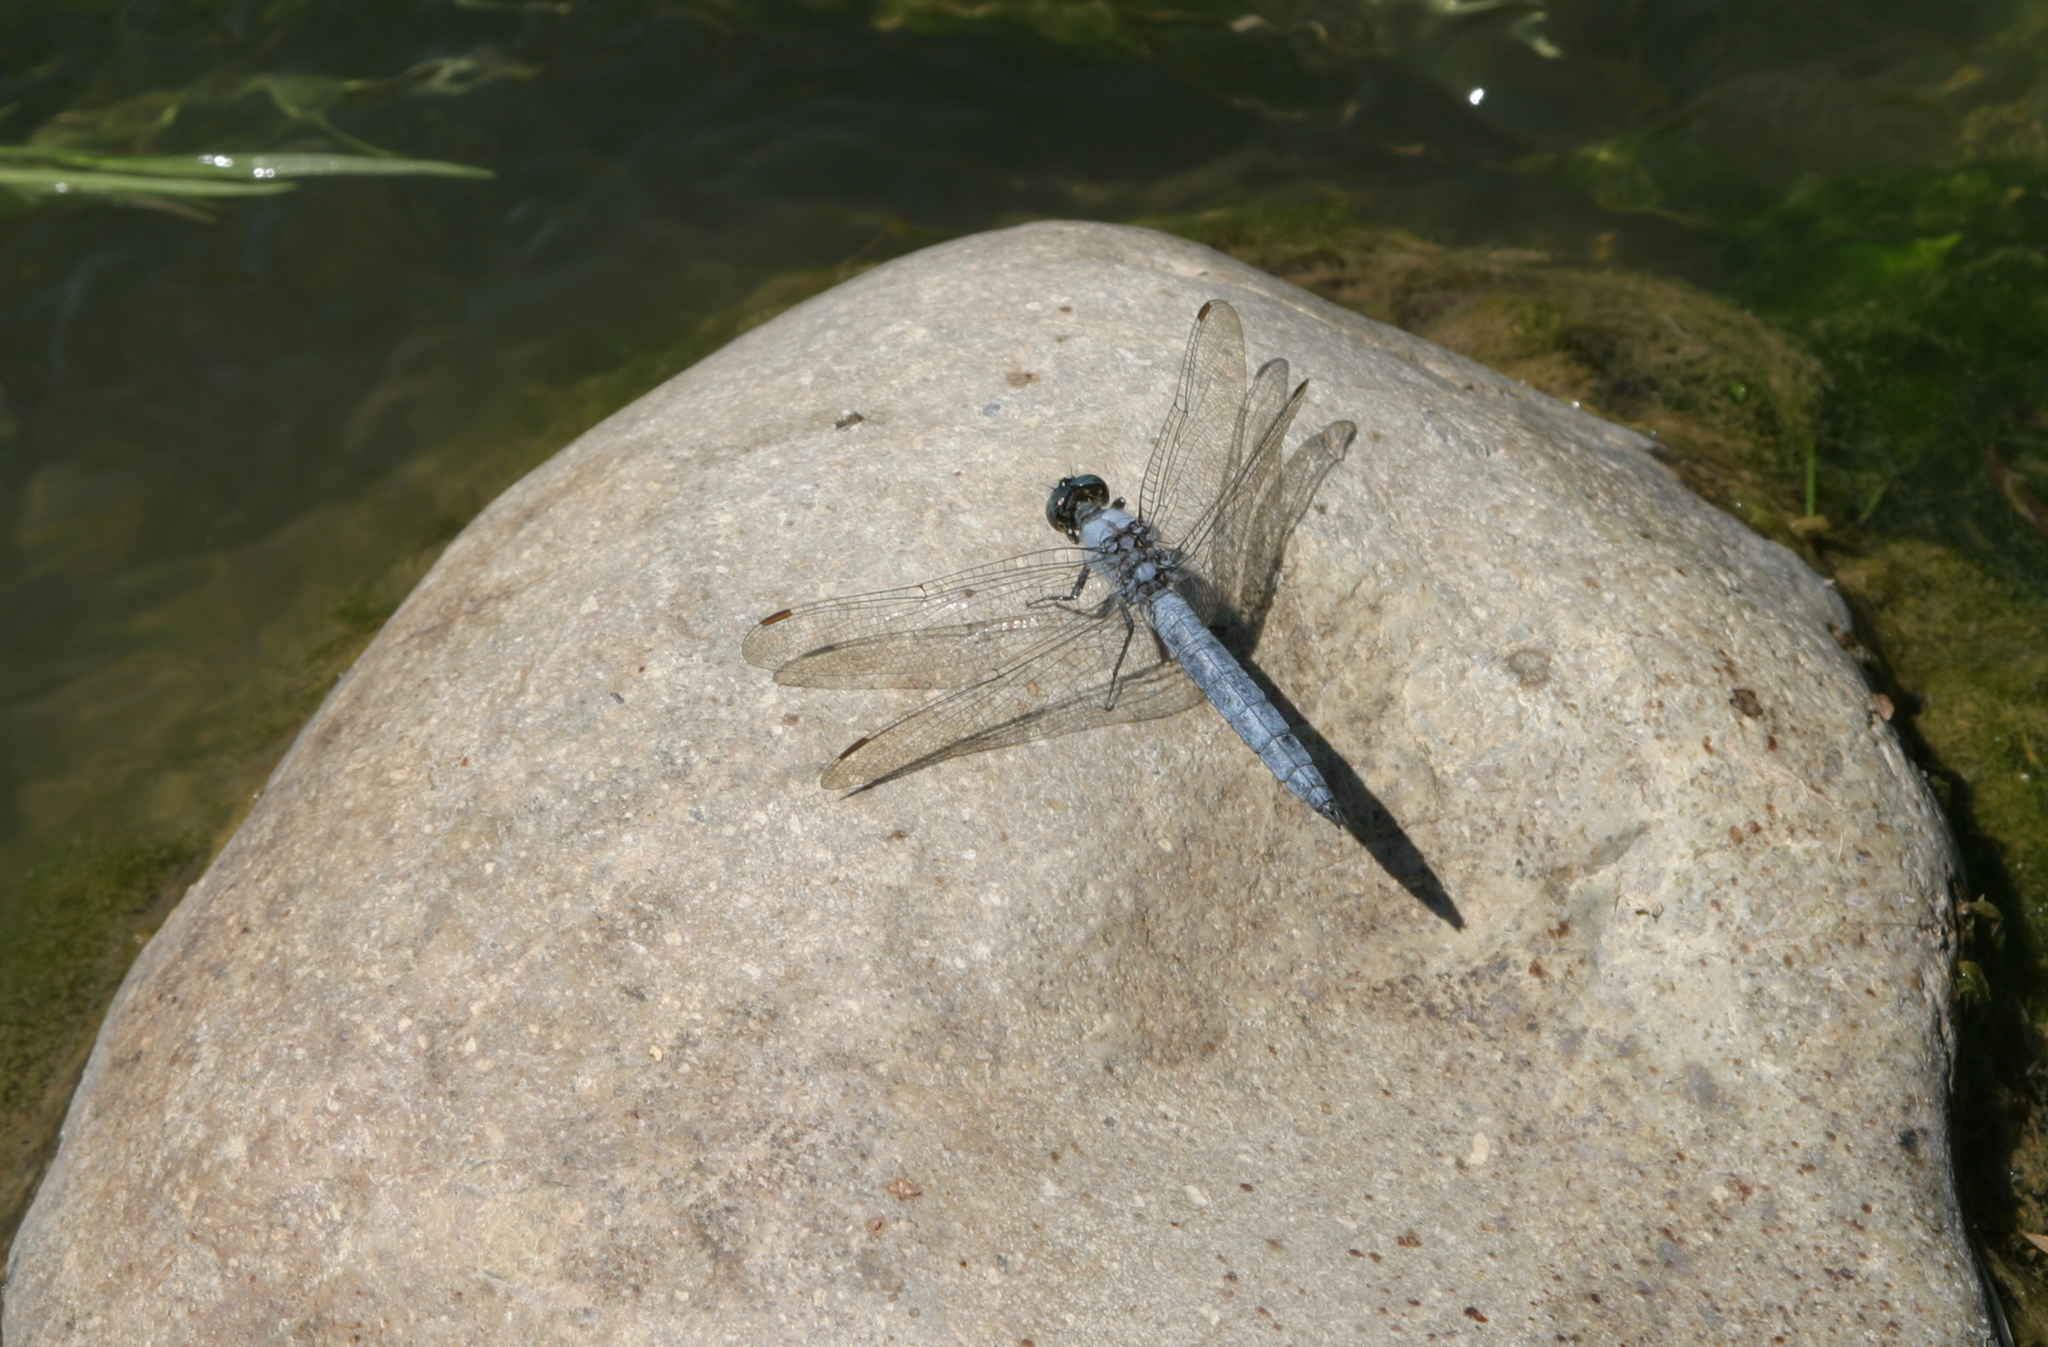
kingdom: Animalia
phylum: Arthropoda
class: Insecta
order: Odonata
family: Libellulidae
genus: Orthetrum
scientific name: Orthetrum brunneum
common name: Southern skimmer
